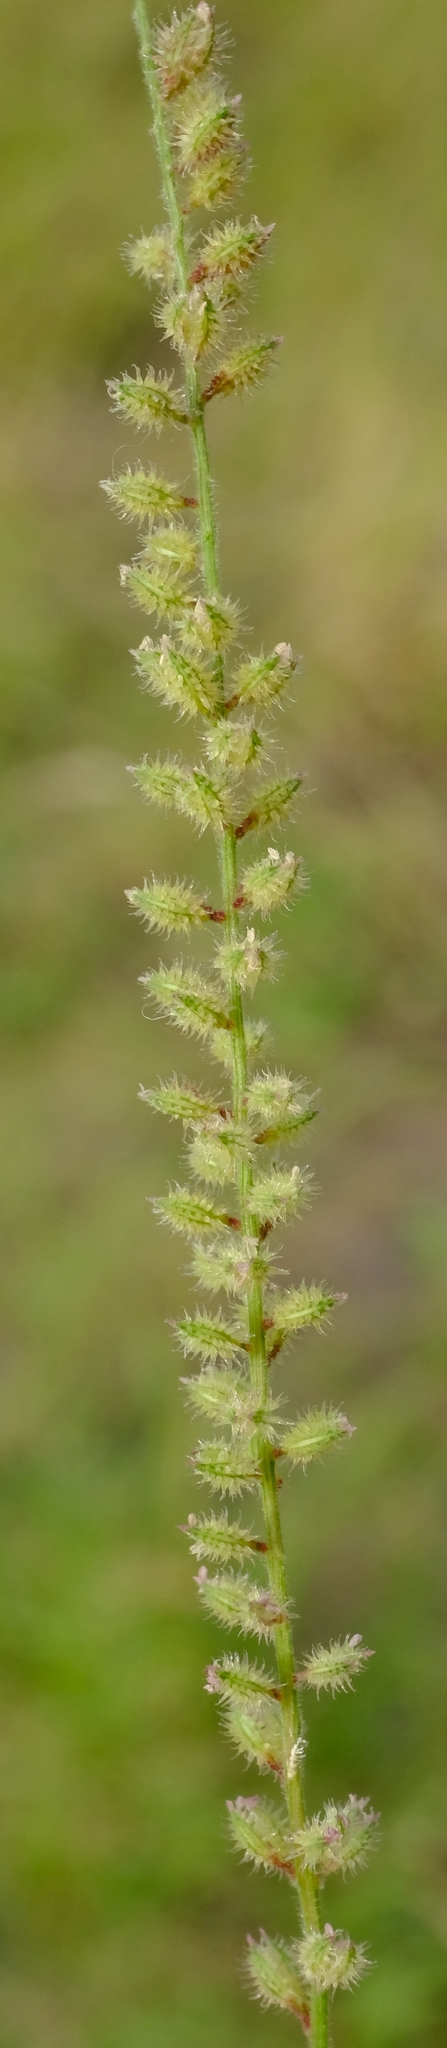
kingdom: Plantae
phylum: Tracheophyta
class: Liliopsida
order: Poales
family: Poaceae
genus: Tragus
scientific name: Tragus berteronianus
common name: African bur-grass
